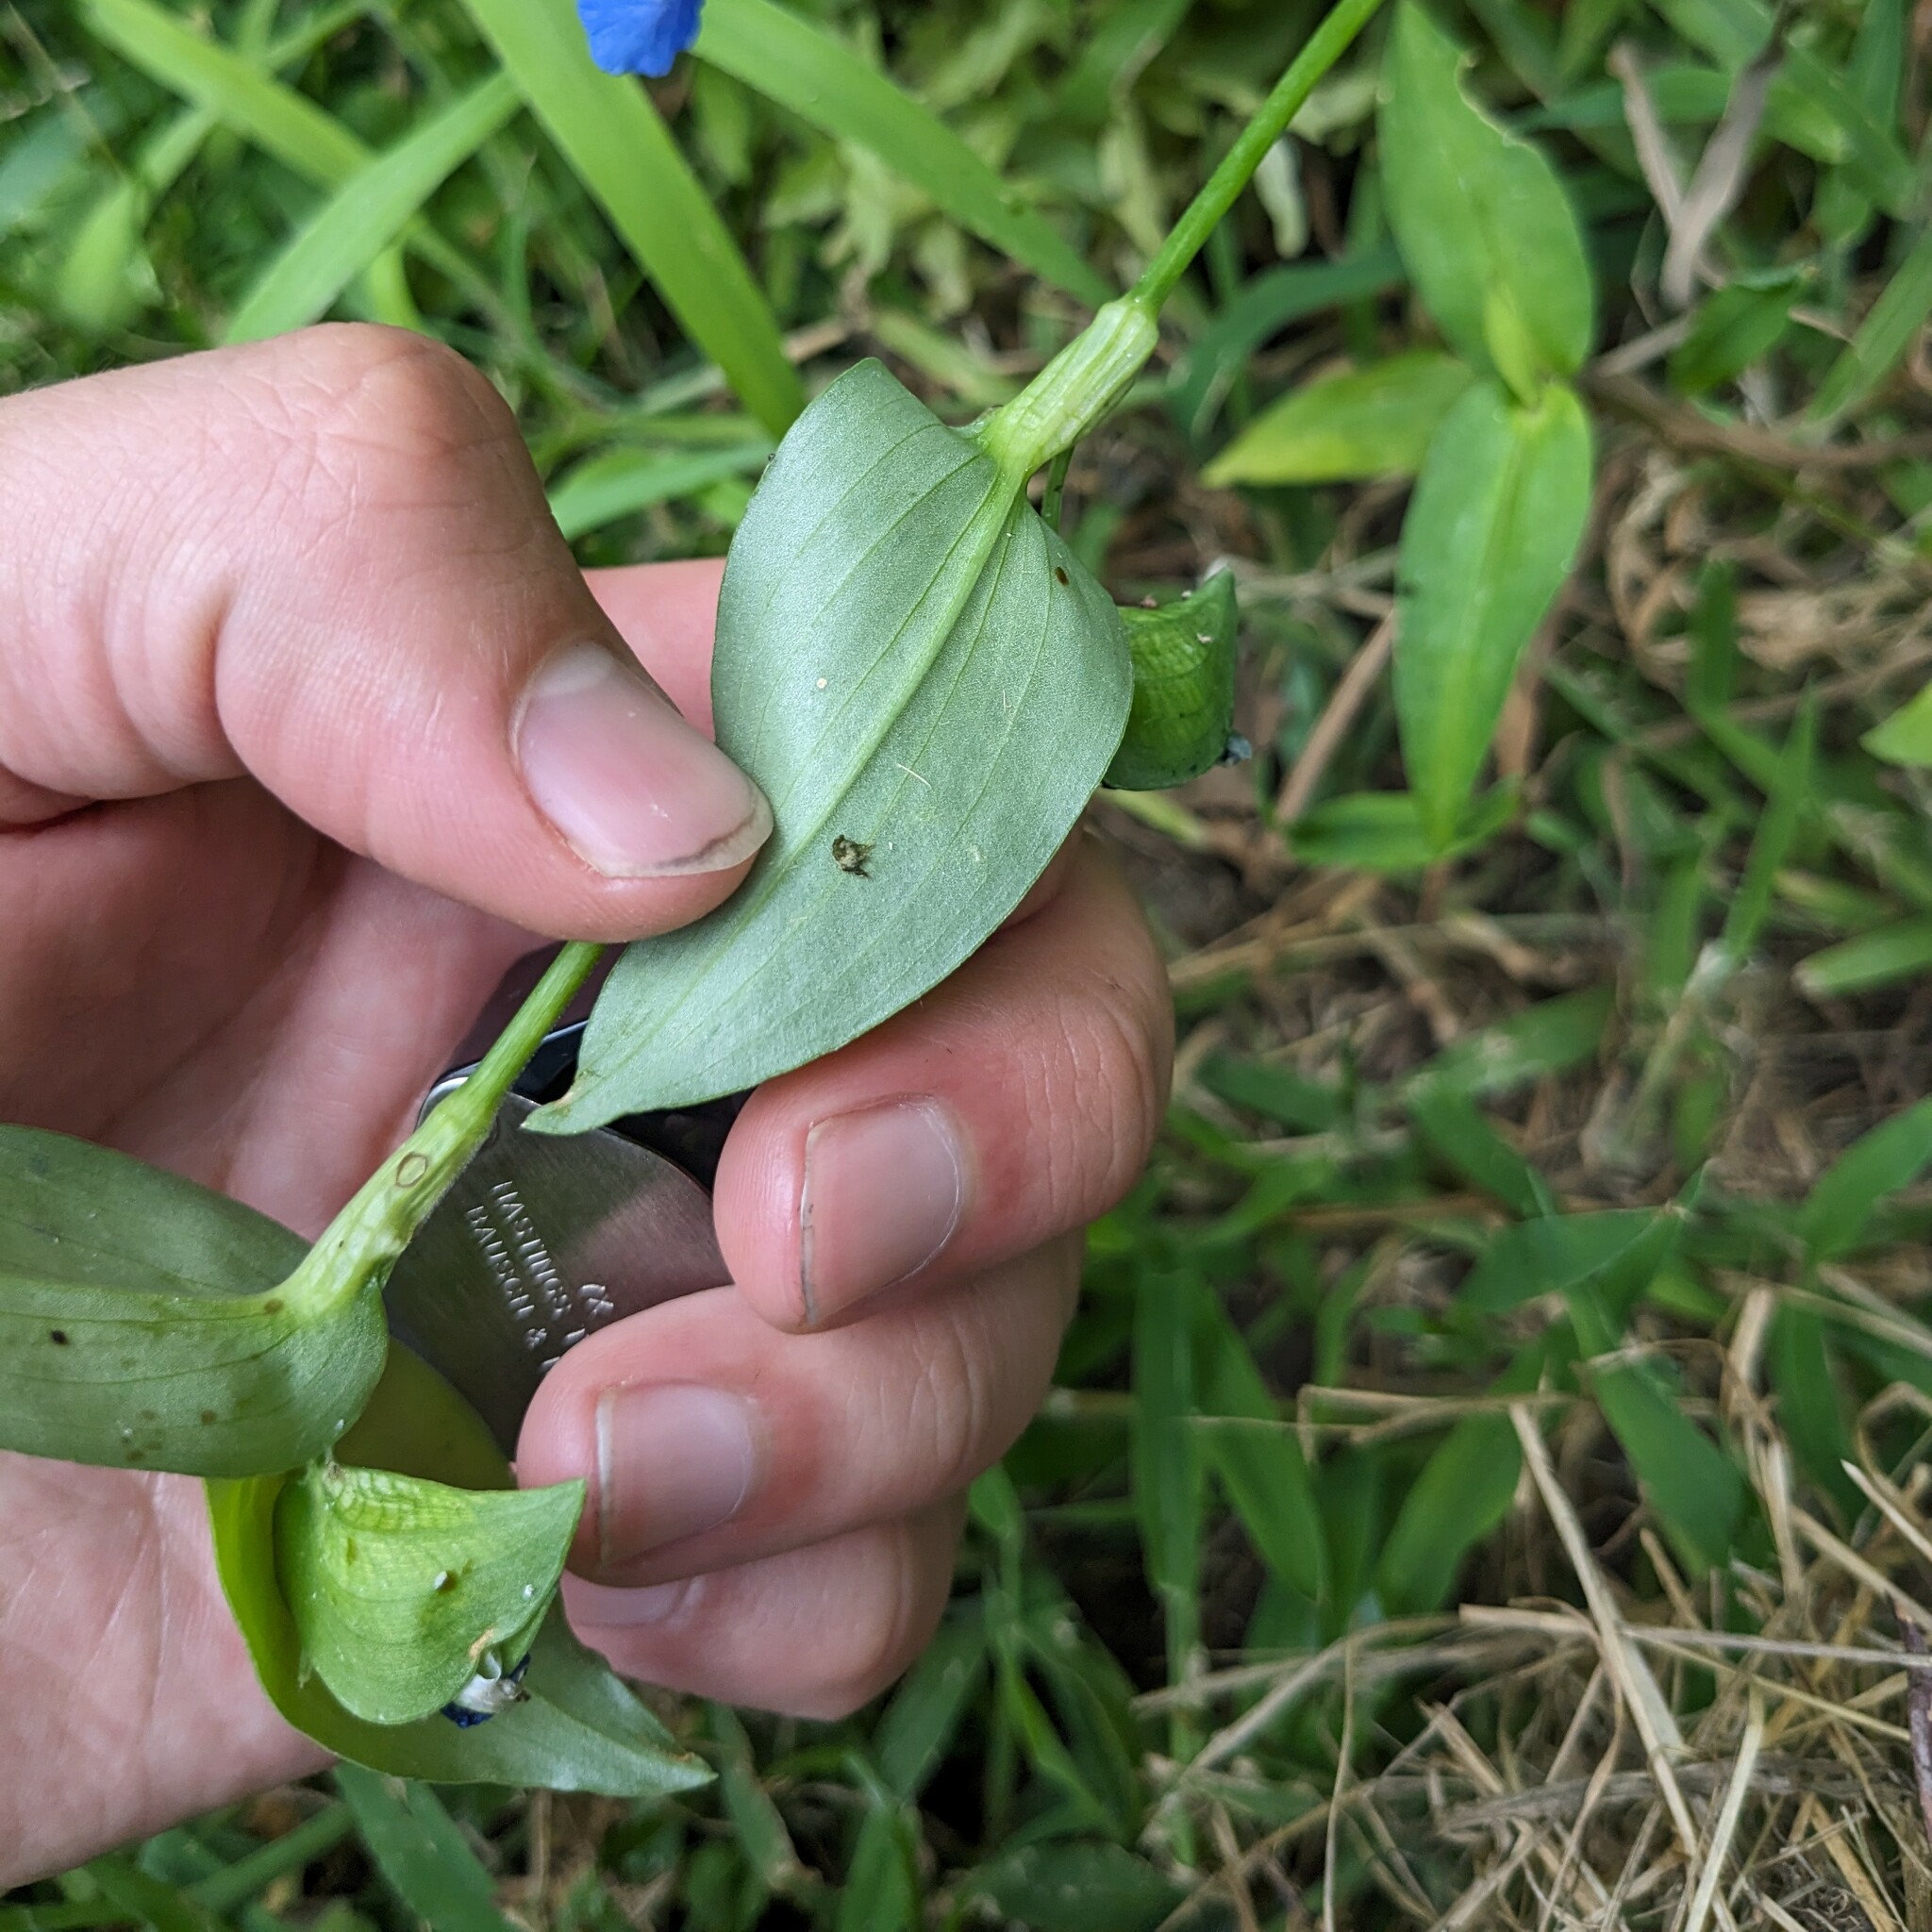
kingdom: Plantae
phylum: Tracheophyta
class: Liliopsida
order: Commelinales
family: Commelinaceae
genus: Commelina
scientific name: Commelina communis
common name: Asiatic dayflower
